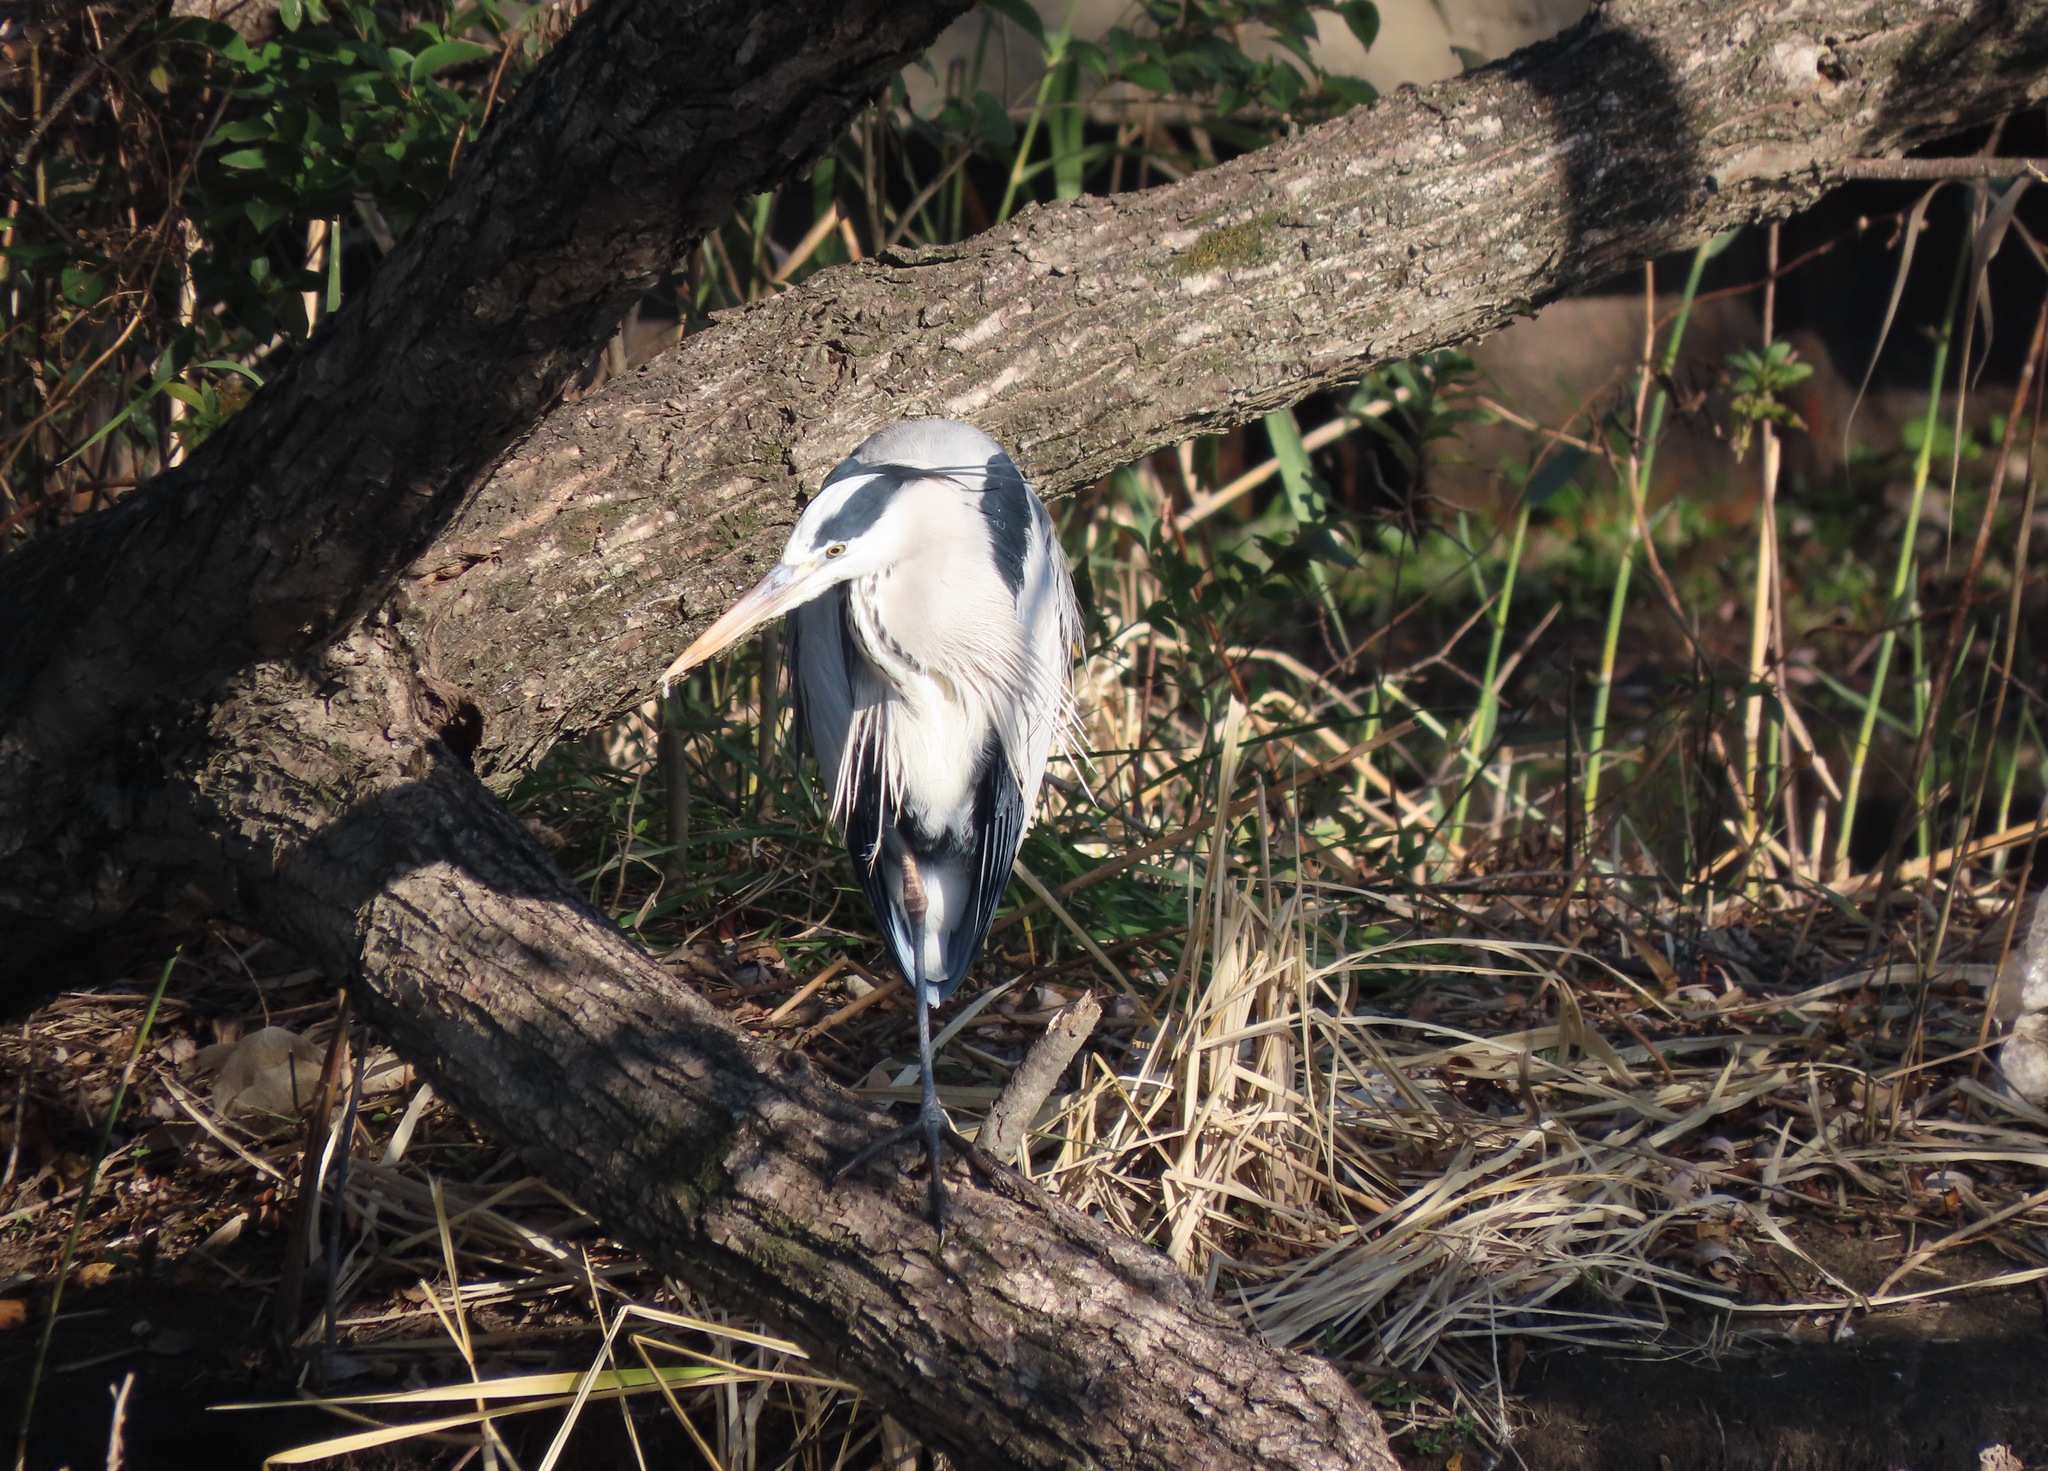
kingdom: Animalia
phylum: Chordata
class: Aves
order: Pelecaniformes
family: Ardeidae
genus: Ardea
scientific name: Ardea cinerea
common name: Grey heron
